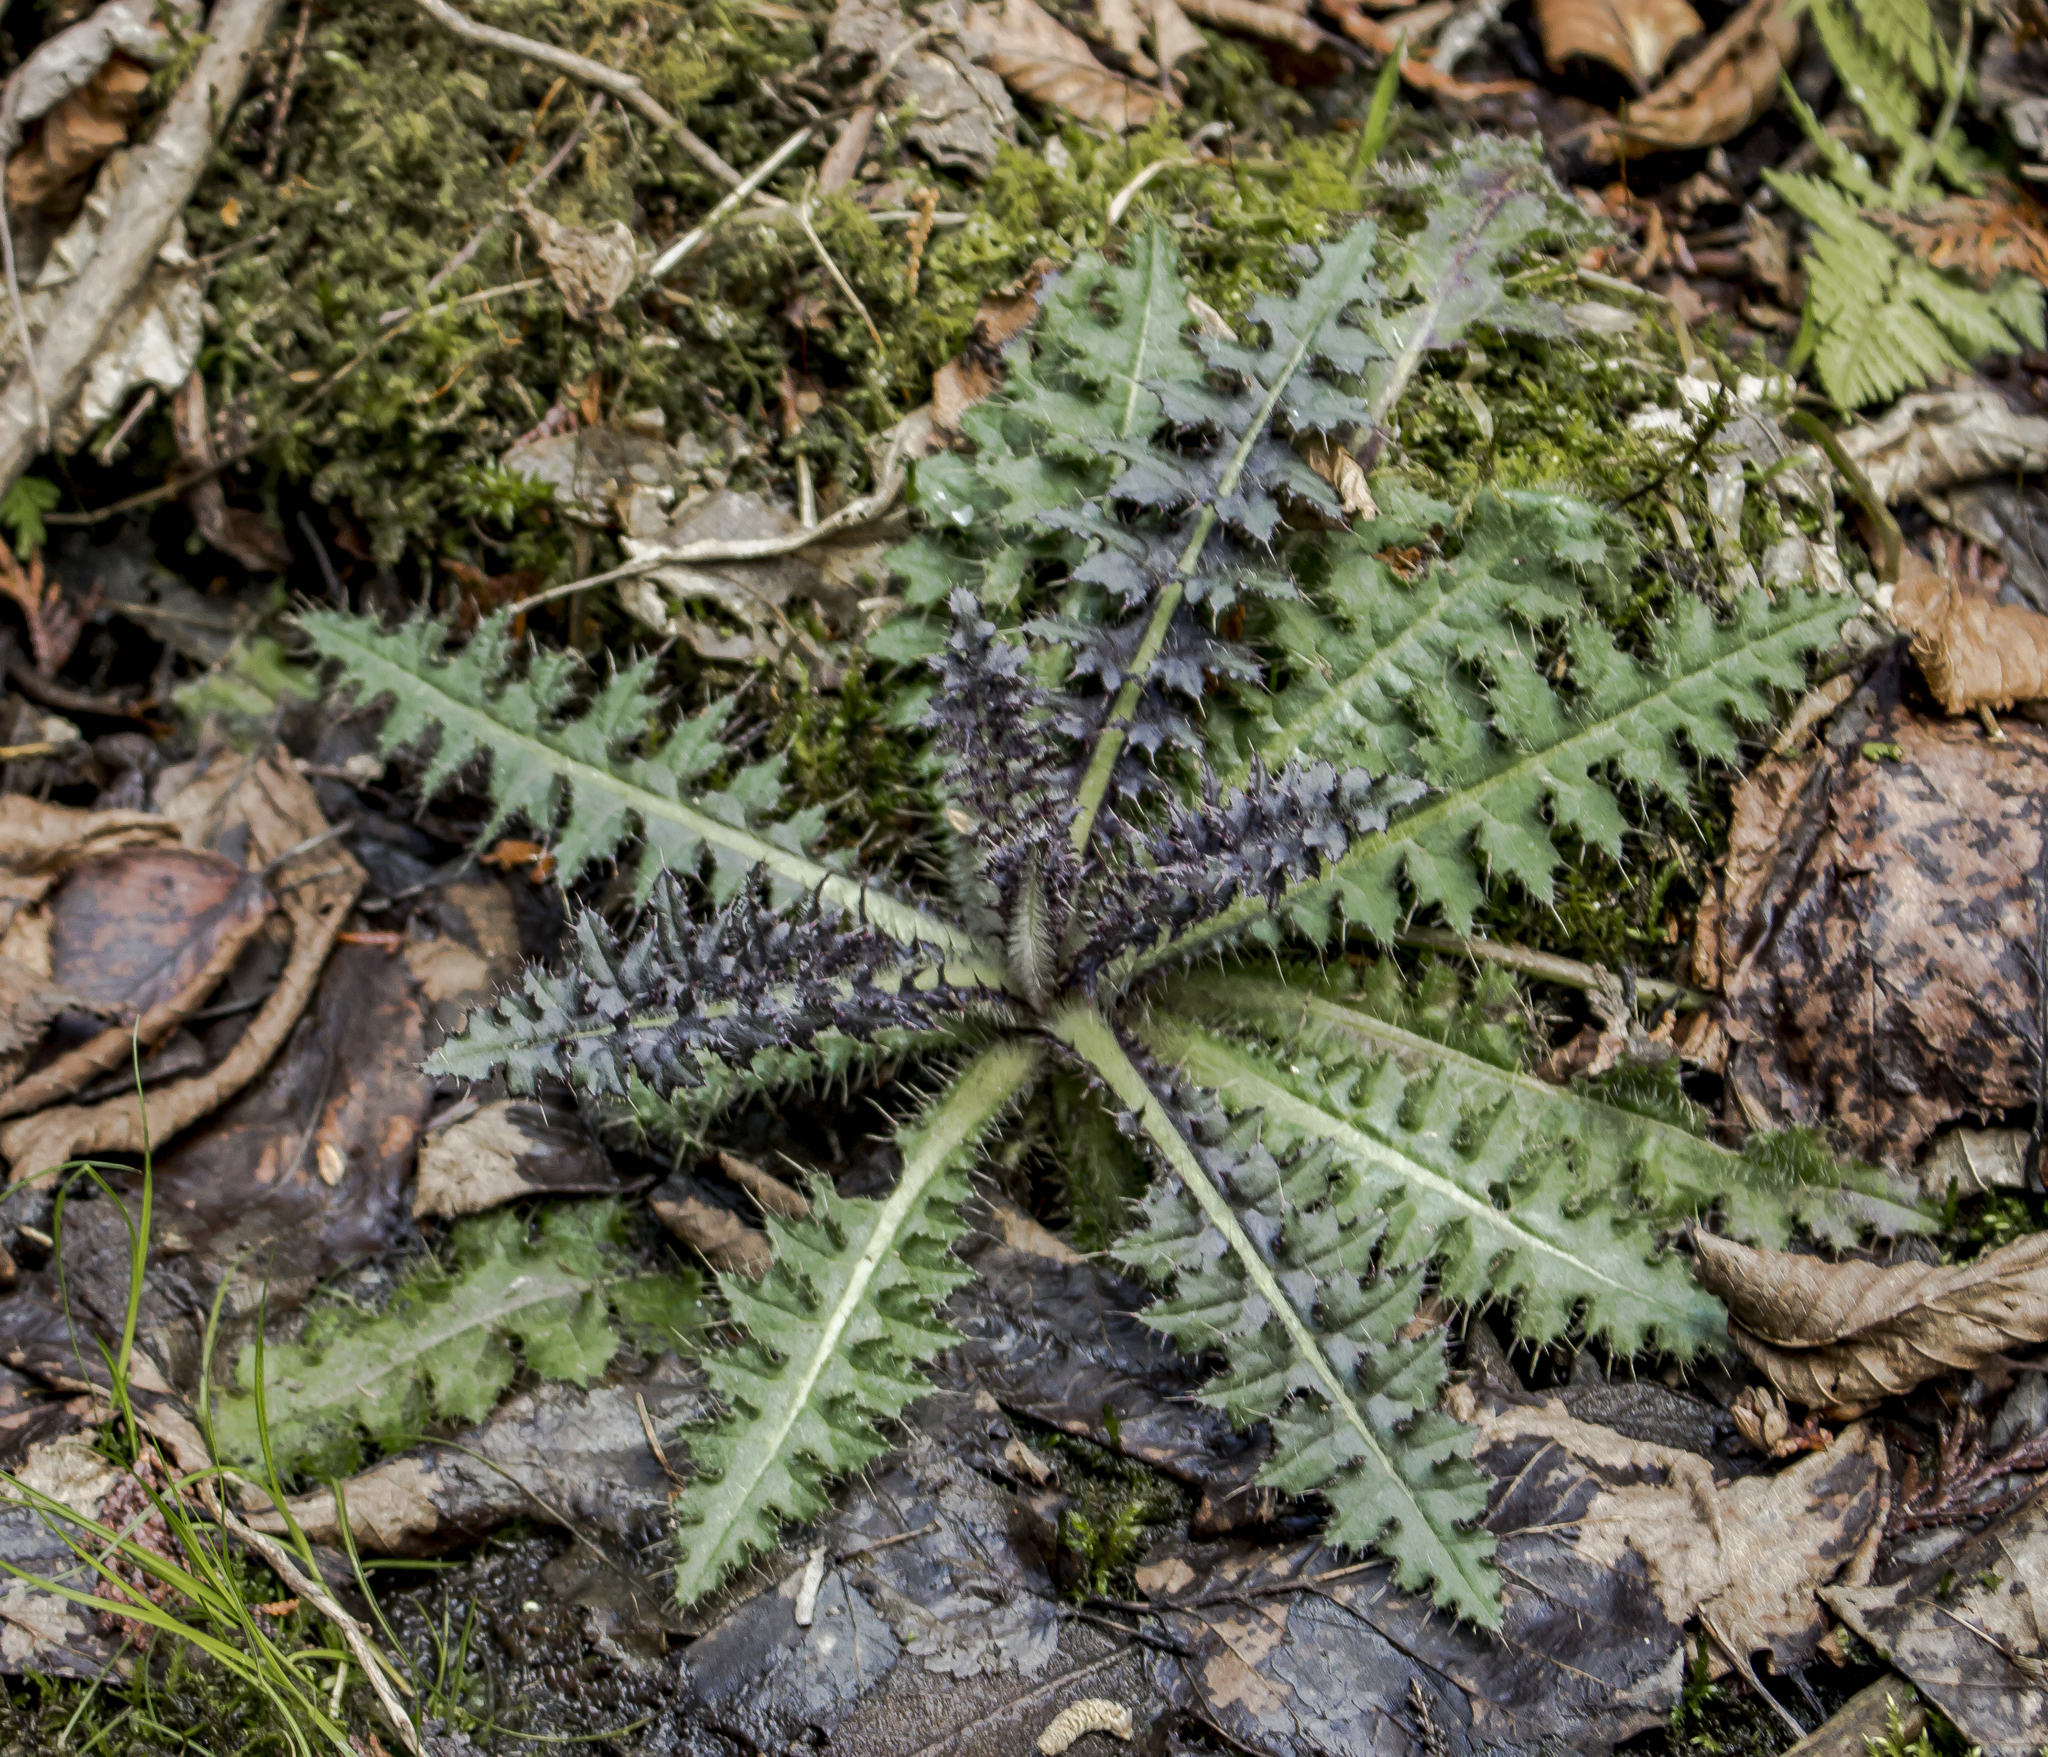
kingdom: Plantae
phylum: Tracheophyta
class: Magnoliopsida
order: Asterales
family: Asteraceae
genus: Cirsium
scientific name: Cirsium palustre
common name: Marsh thistle
